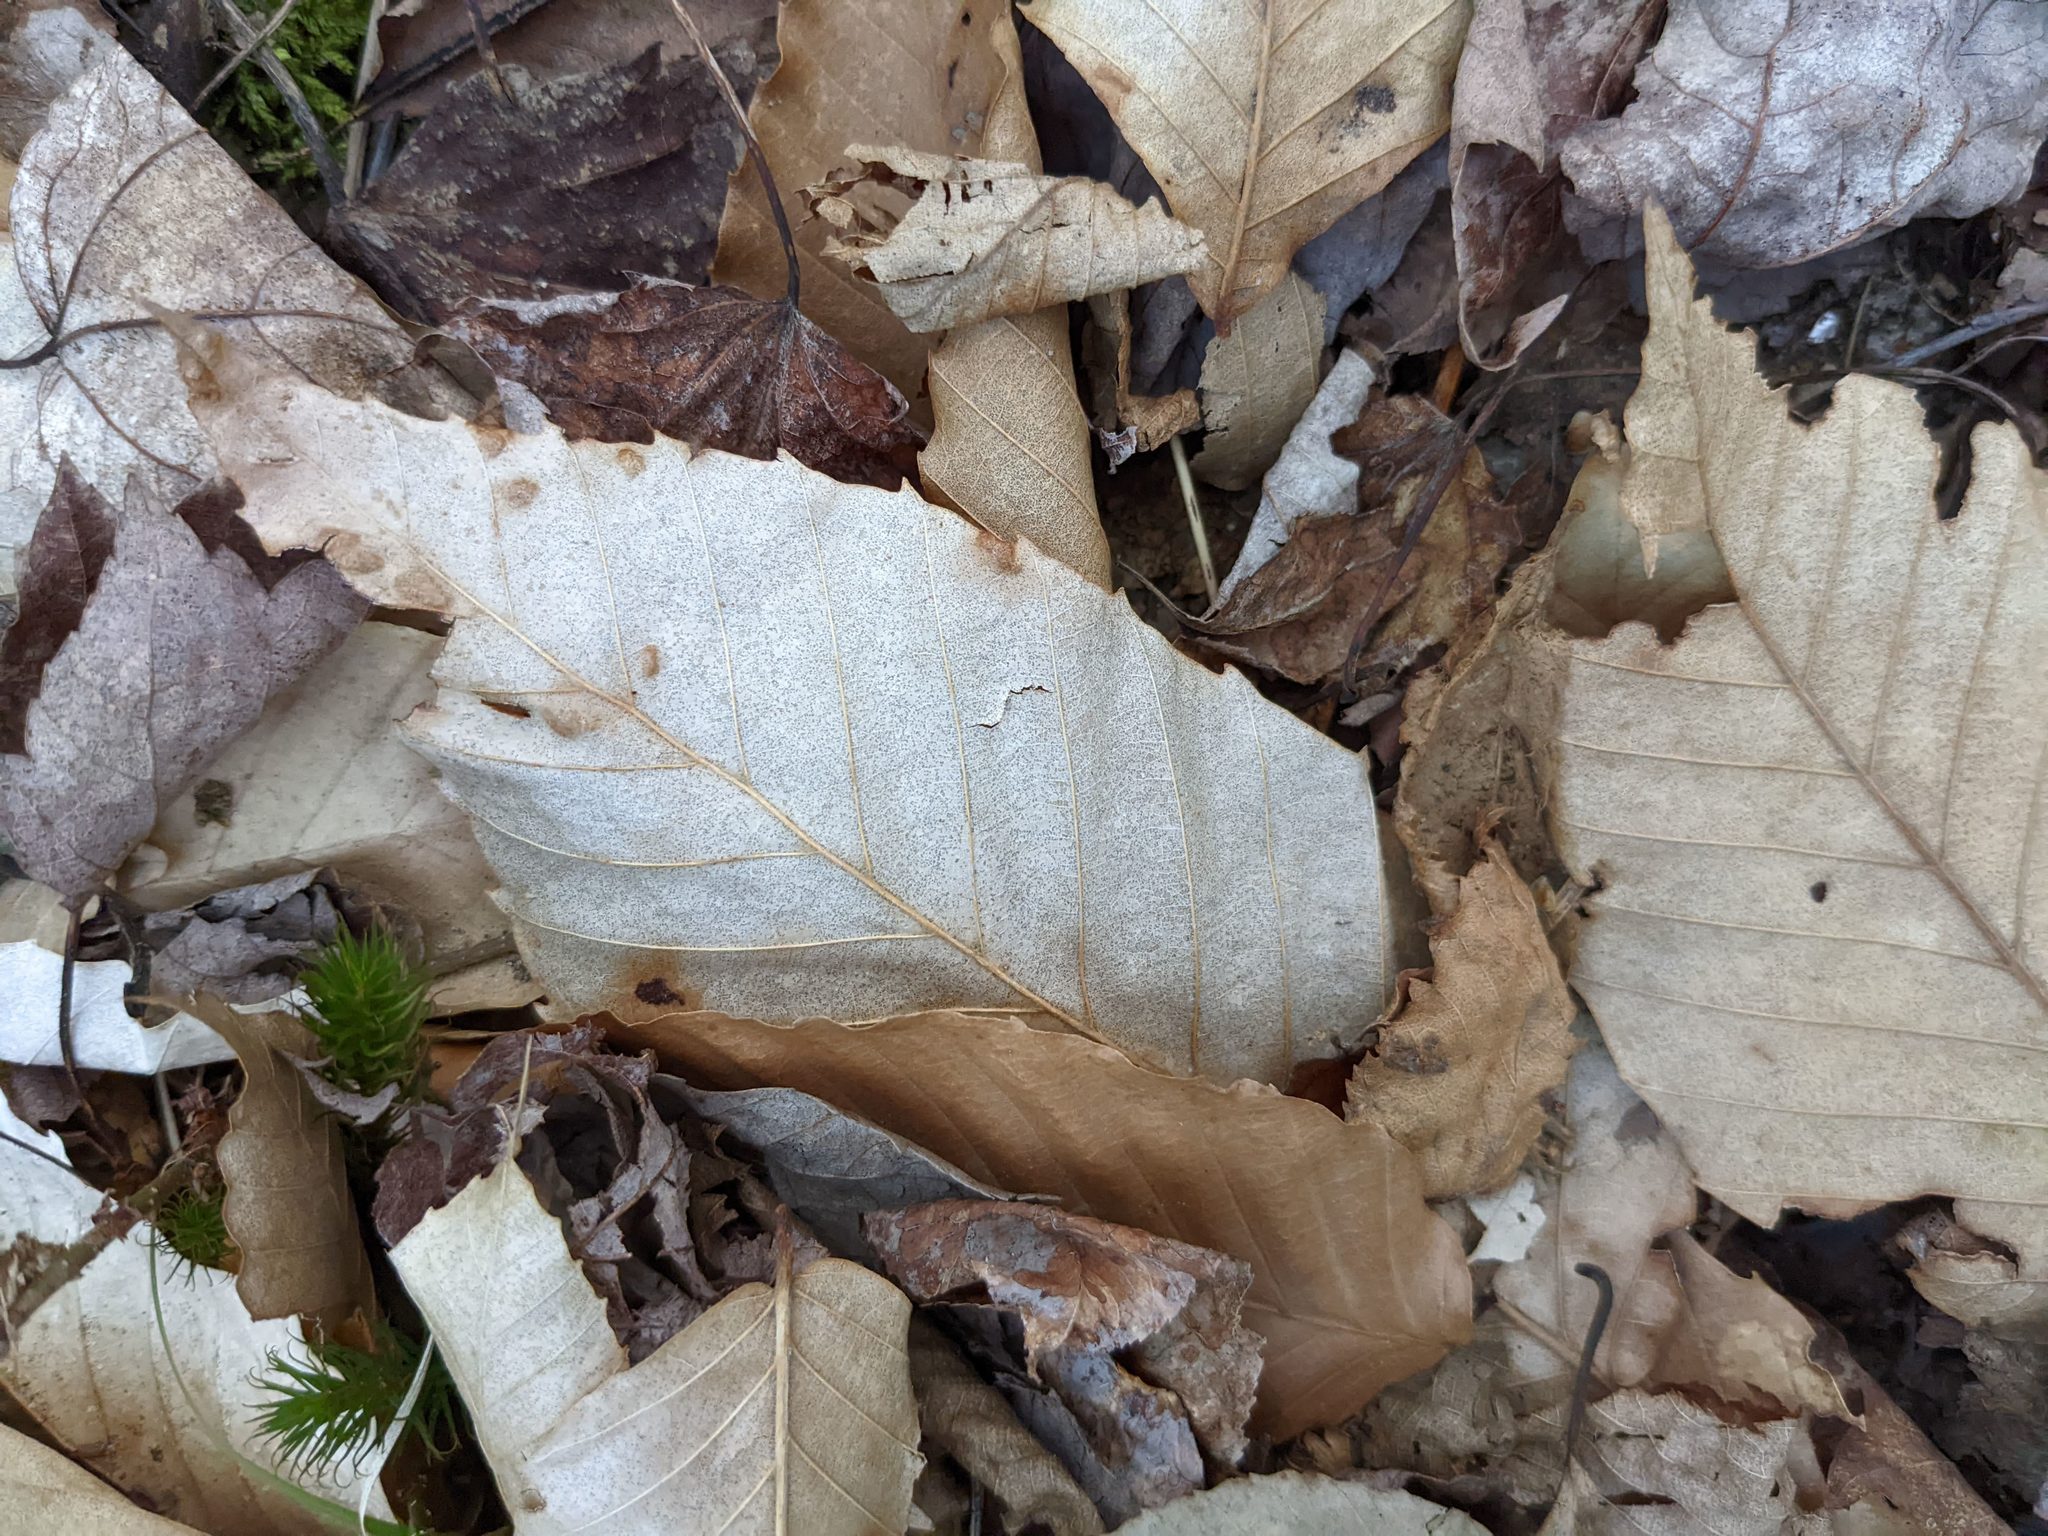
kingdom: Plantae
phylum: Tracheophyta
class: Magnoliopsida
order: Fagales
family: Fagaceae
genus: Fagus
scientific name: Fagus grandifolia
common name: American beech
